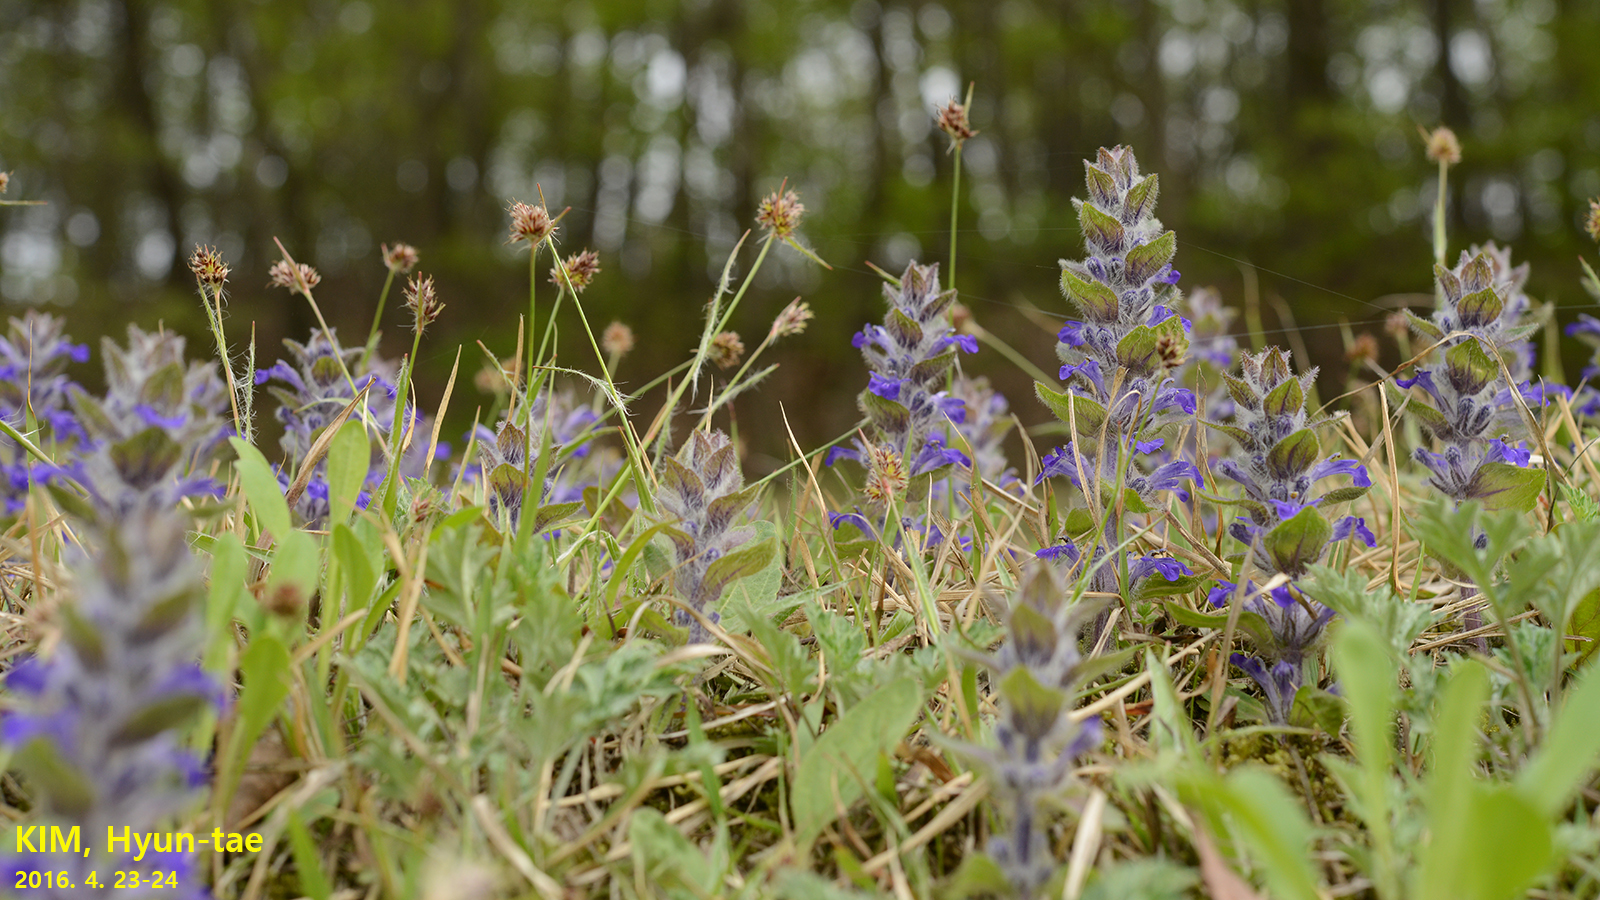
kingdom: Plantae
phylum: Tracheophyta
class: Magnoliopsida
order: Lamiales
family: Lamiaceae
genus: Ajuga
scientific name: Ajuga multiflora
